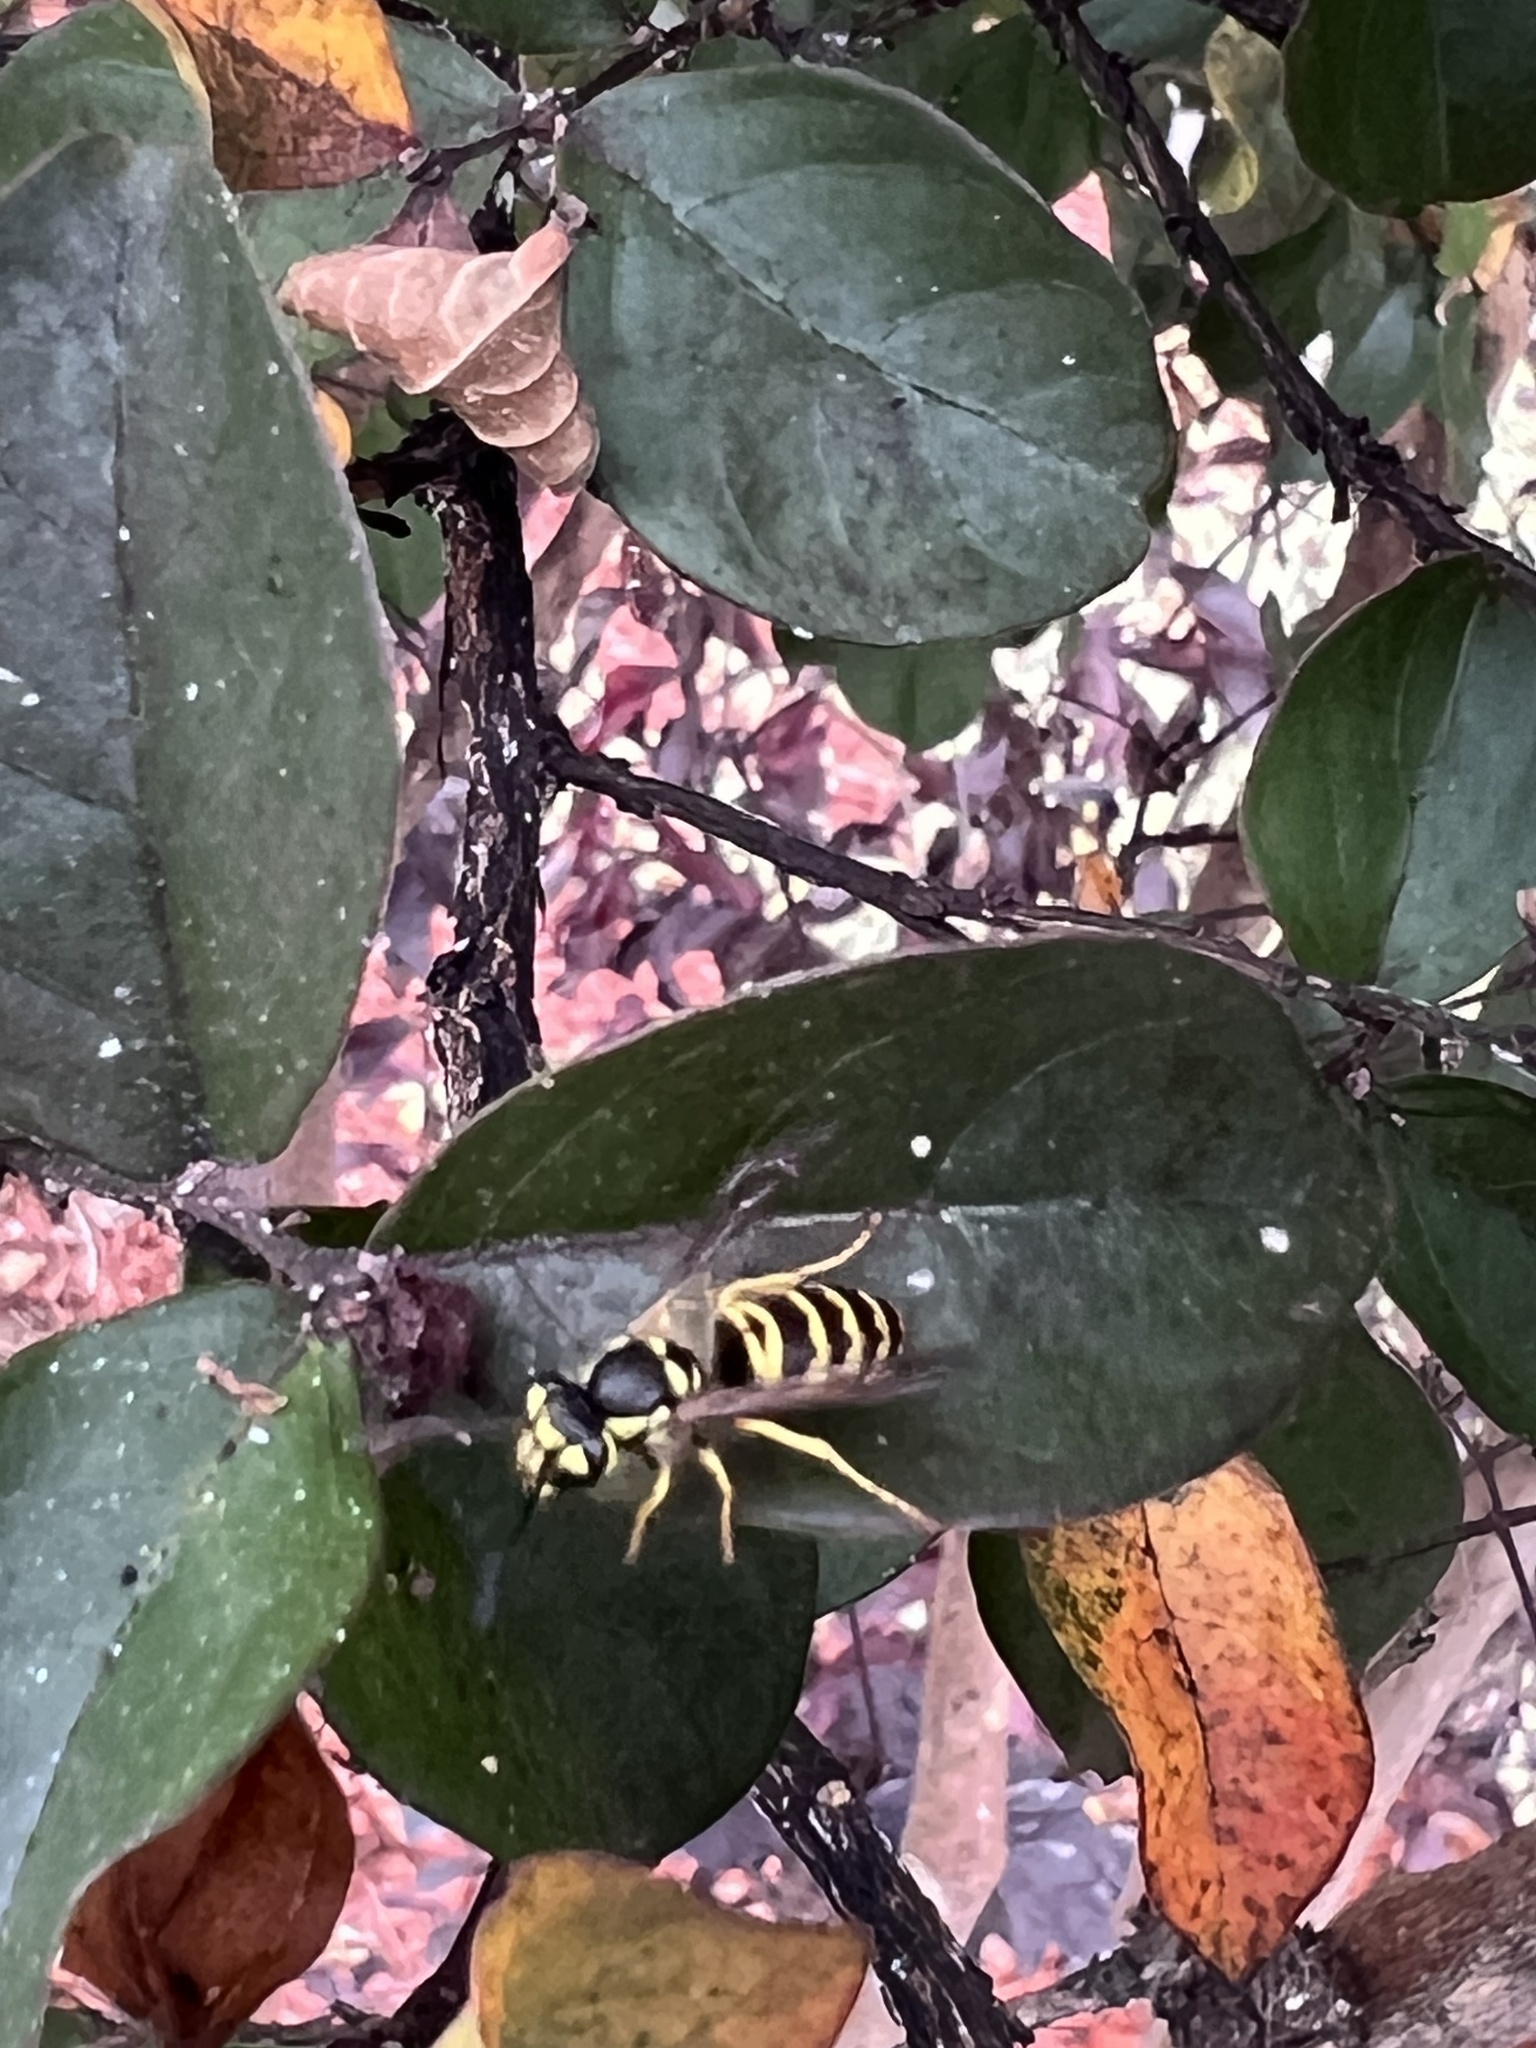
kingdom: Animalia
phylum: Arthropoda
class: Insecta
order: Hymenoptera
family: Vespidae
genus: Vespula
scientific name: Vespula maculifrons
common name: Eastern yellowjacket
